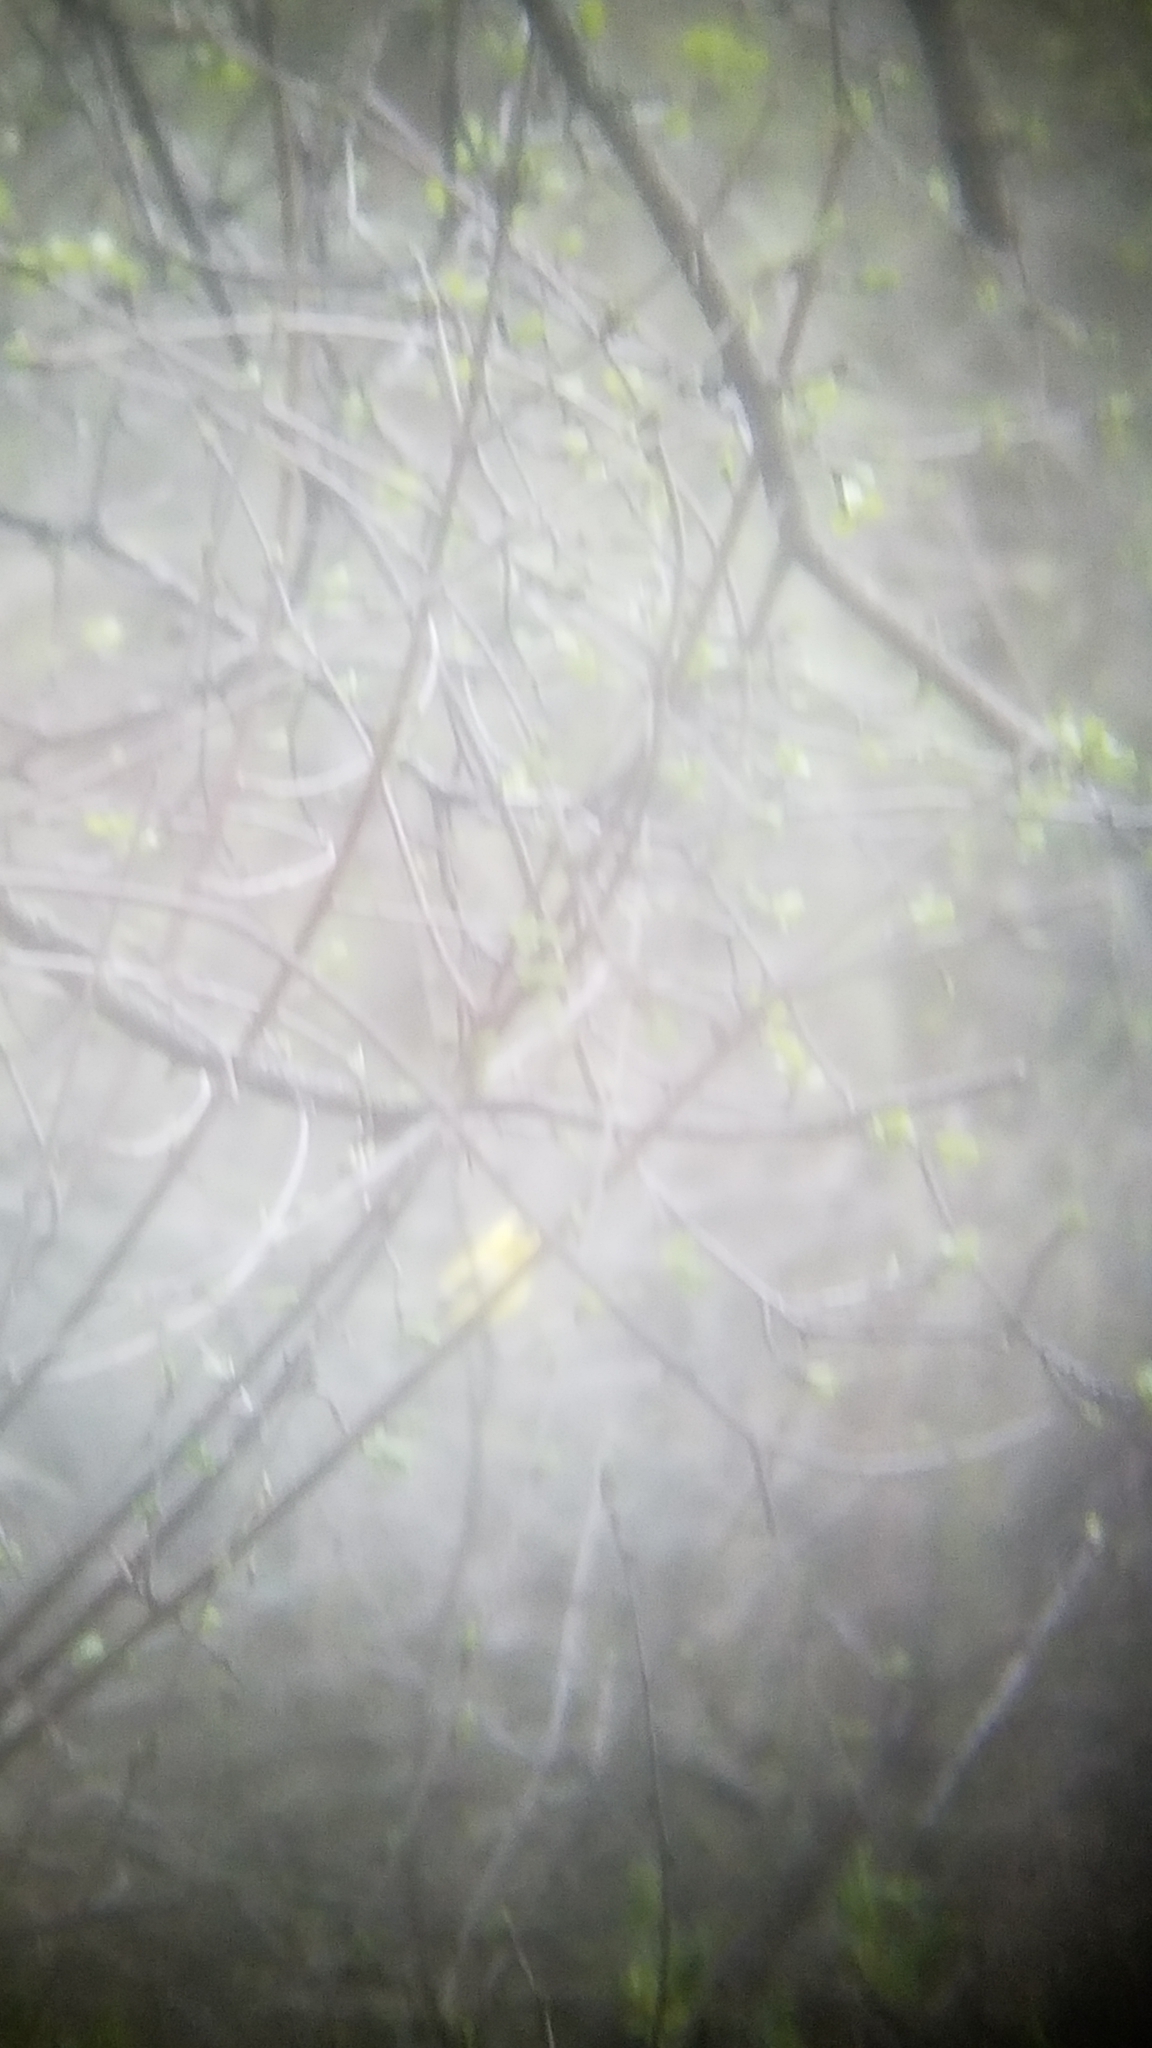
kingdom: Animalia
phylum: Chordata
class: Aves
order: Passeriformes
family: Fringillidae
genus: Spinus
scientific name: Spinus tristis
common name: American goldfinch
